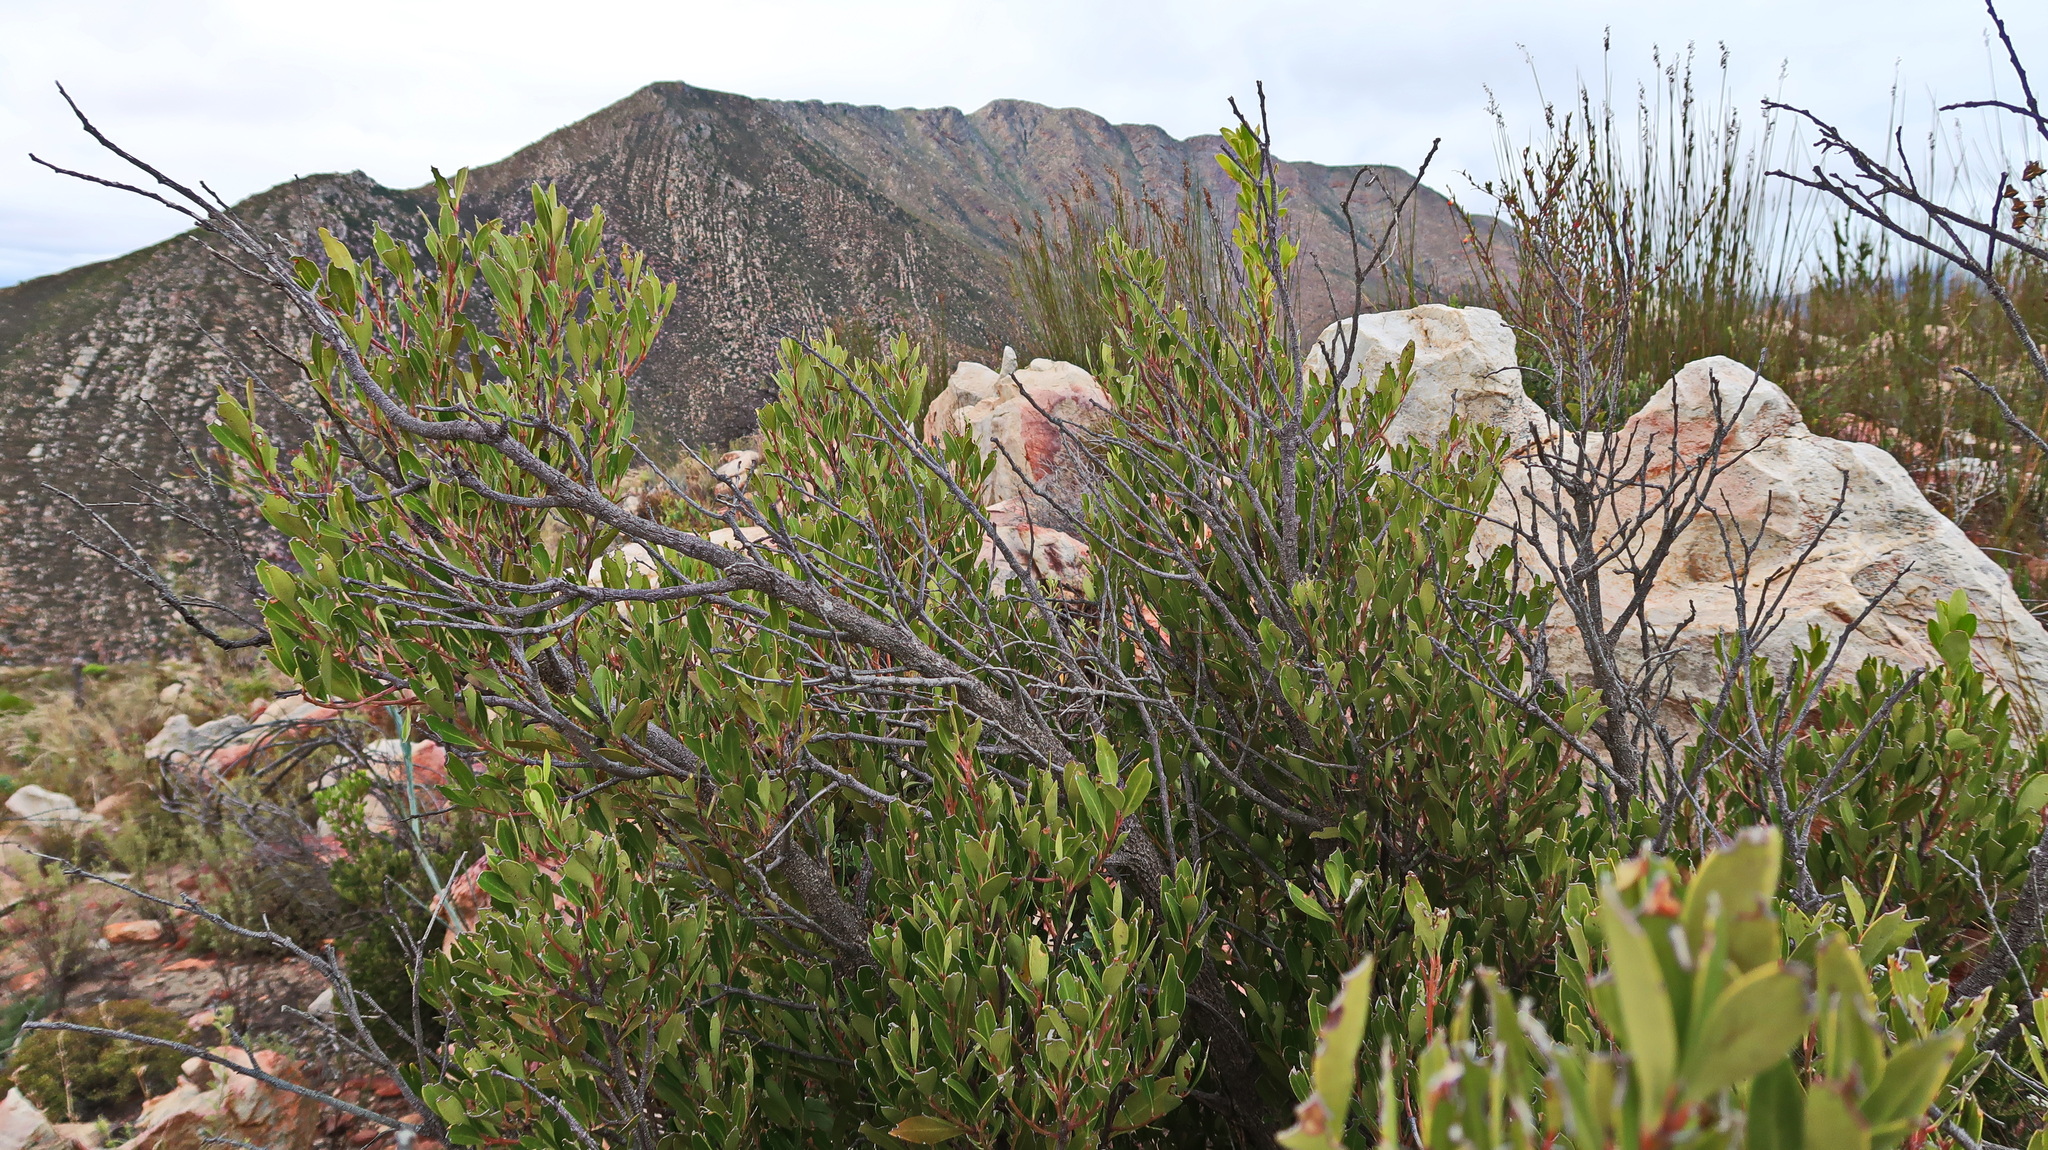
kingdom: Plantae
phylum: Tracheophyta
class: Magnoliopsida
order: Celastrales
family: Celastraceae
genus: Gymnosporia
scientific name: Gymnosporia laurina
